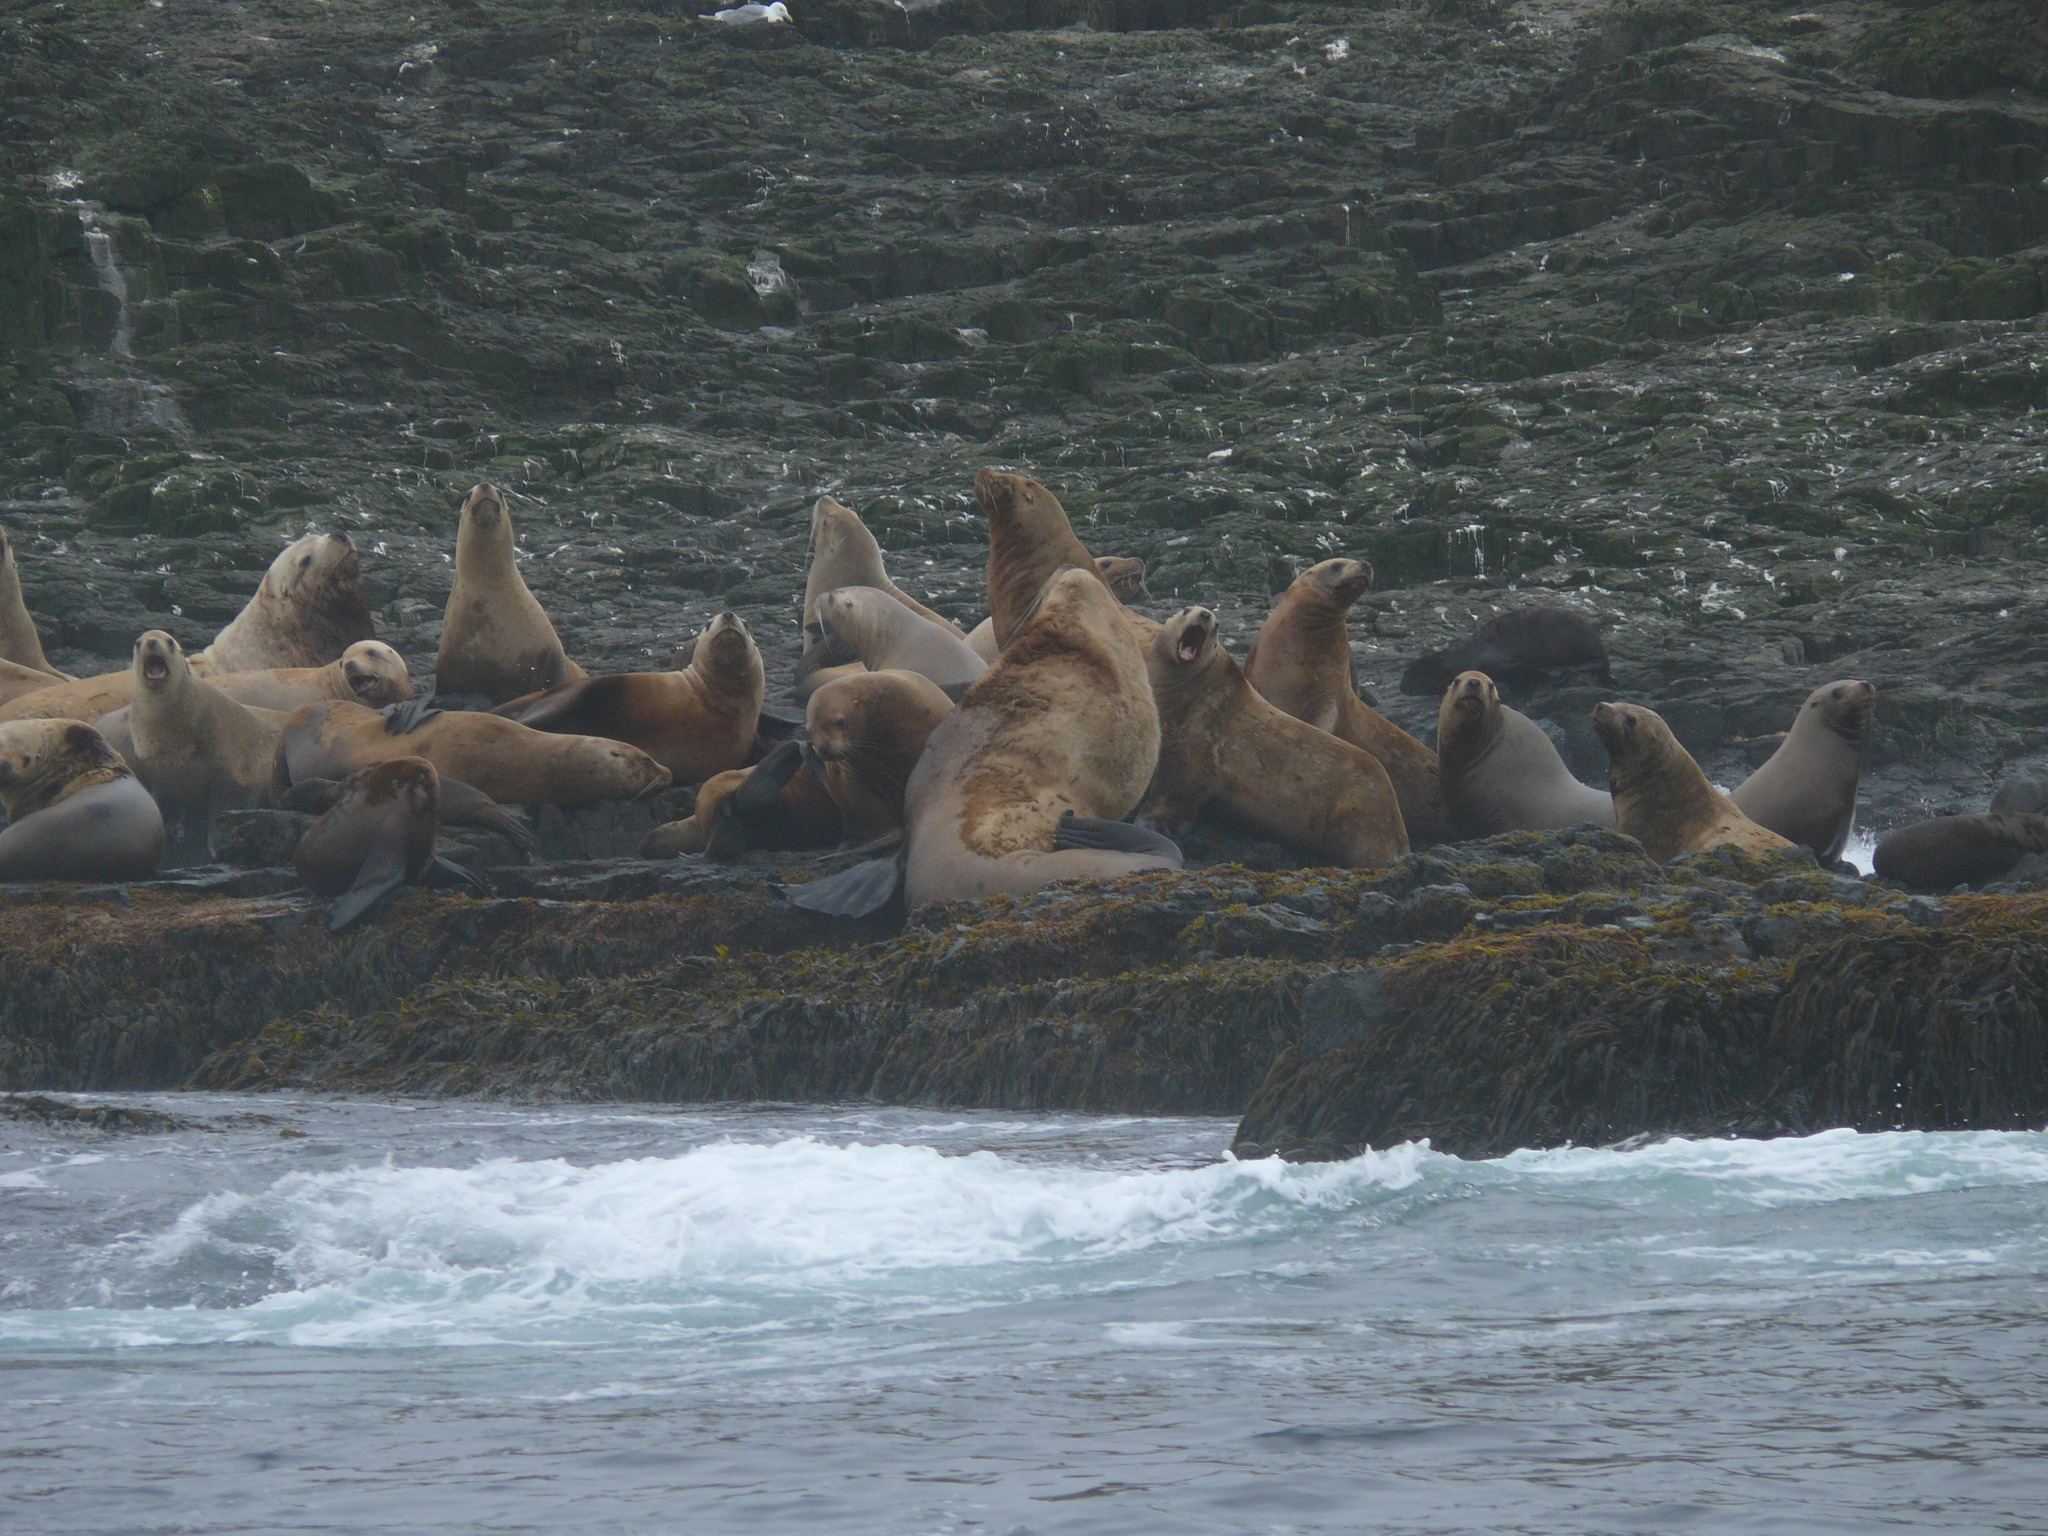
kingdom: Animalia
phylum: Chordata
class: Mammalia
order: Carnivora
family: Otariidae
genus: Eumetopias
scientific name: Eumetopias jubatus
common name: Steller sea lion
